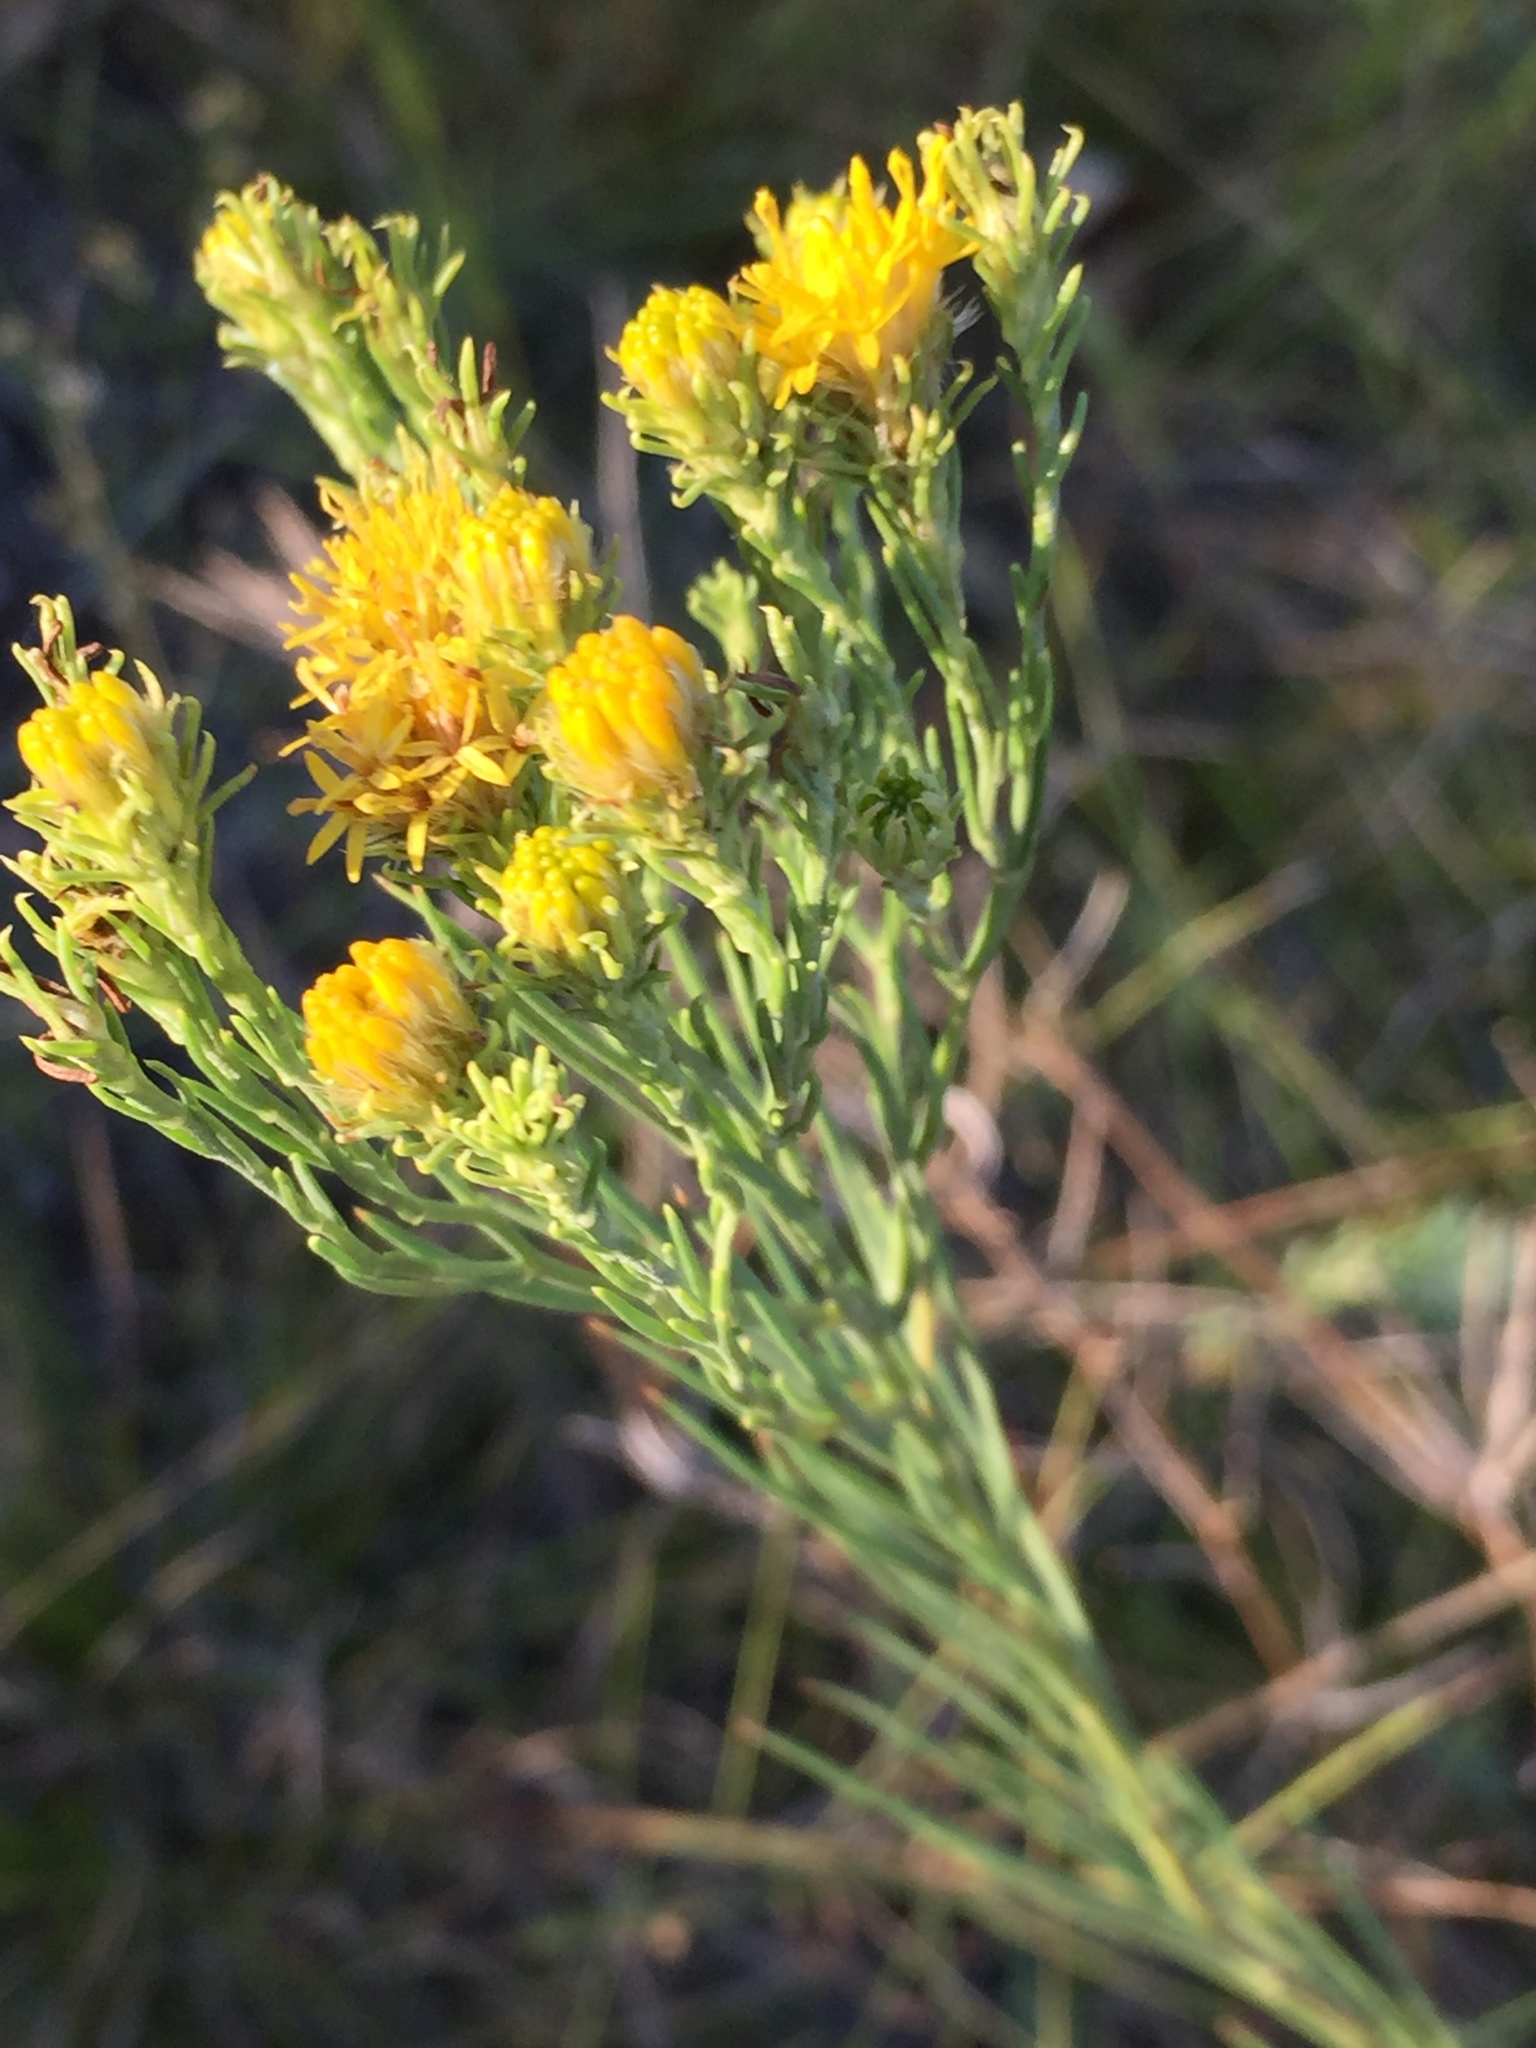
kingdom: Plantae
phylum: Tracheophyta
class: Magnoliopsida
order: Asterales
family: Asteraceae
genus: Galatella
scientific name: Galatella linosyris
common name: Goldilocks aster
